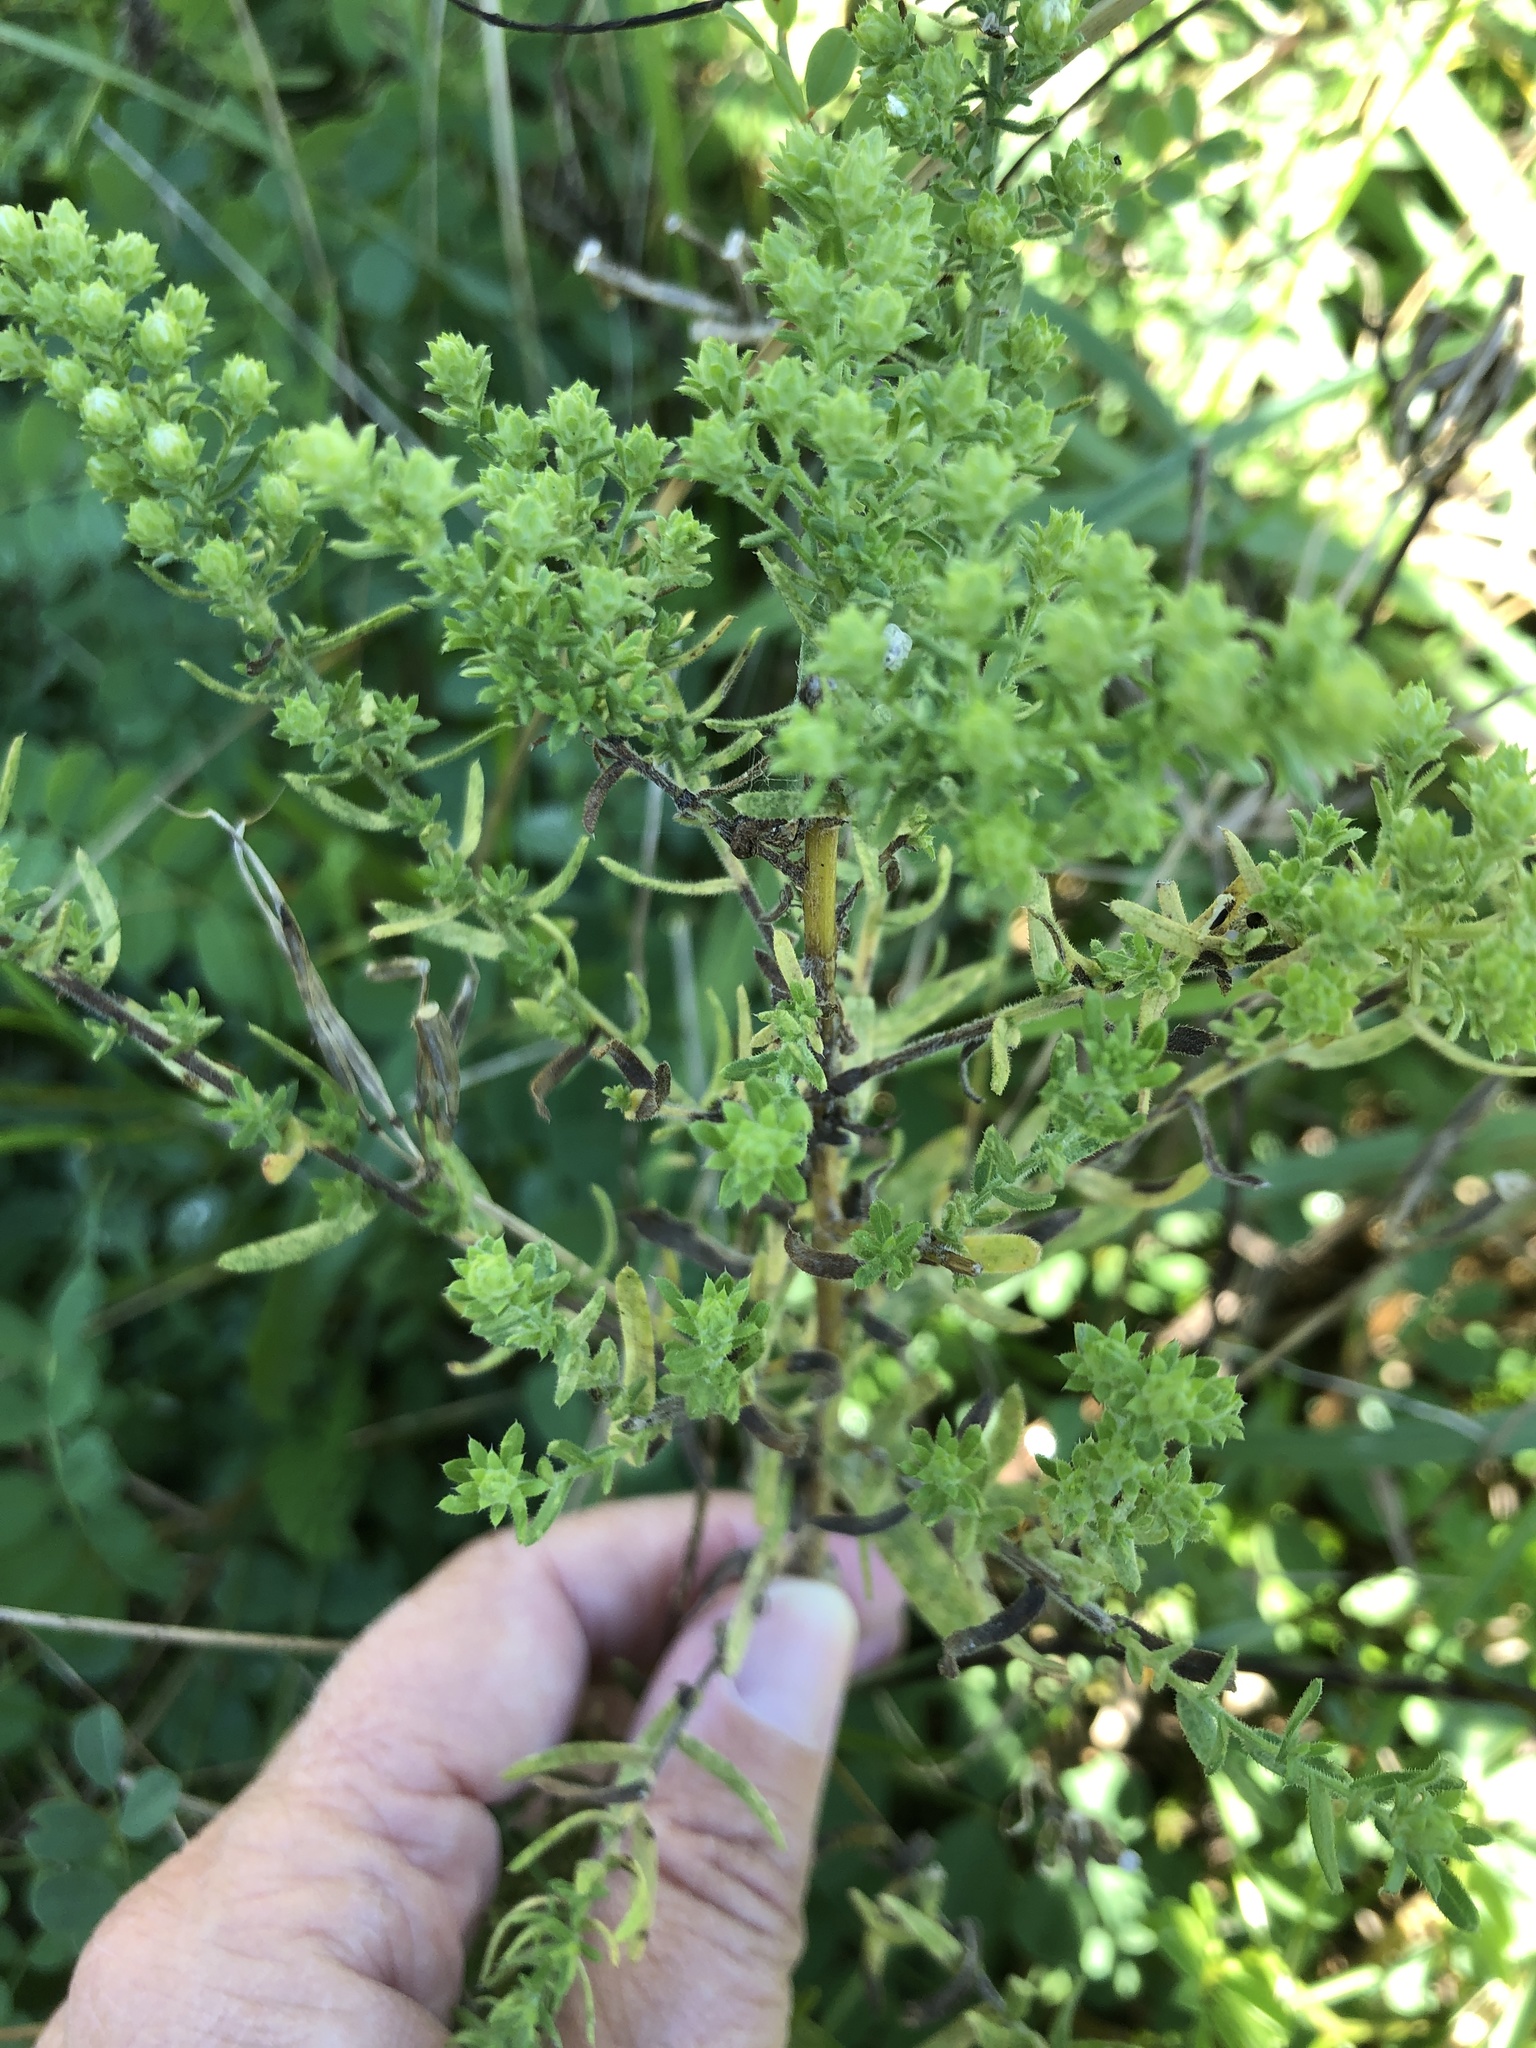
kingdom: Plantae
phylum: Tracheophyta
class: Magnoliopsida
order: Asterales
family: Asteraceae
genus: Symphyotrichum
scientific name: Symphyotrichum ericoides
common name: Heath aster
